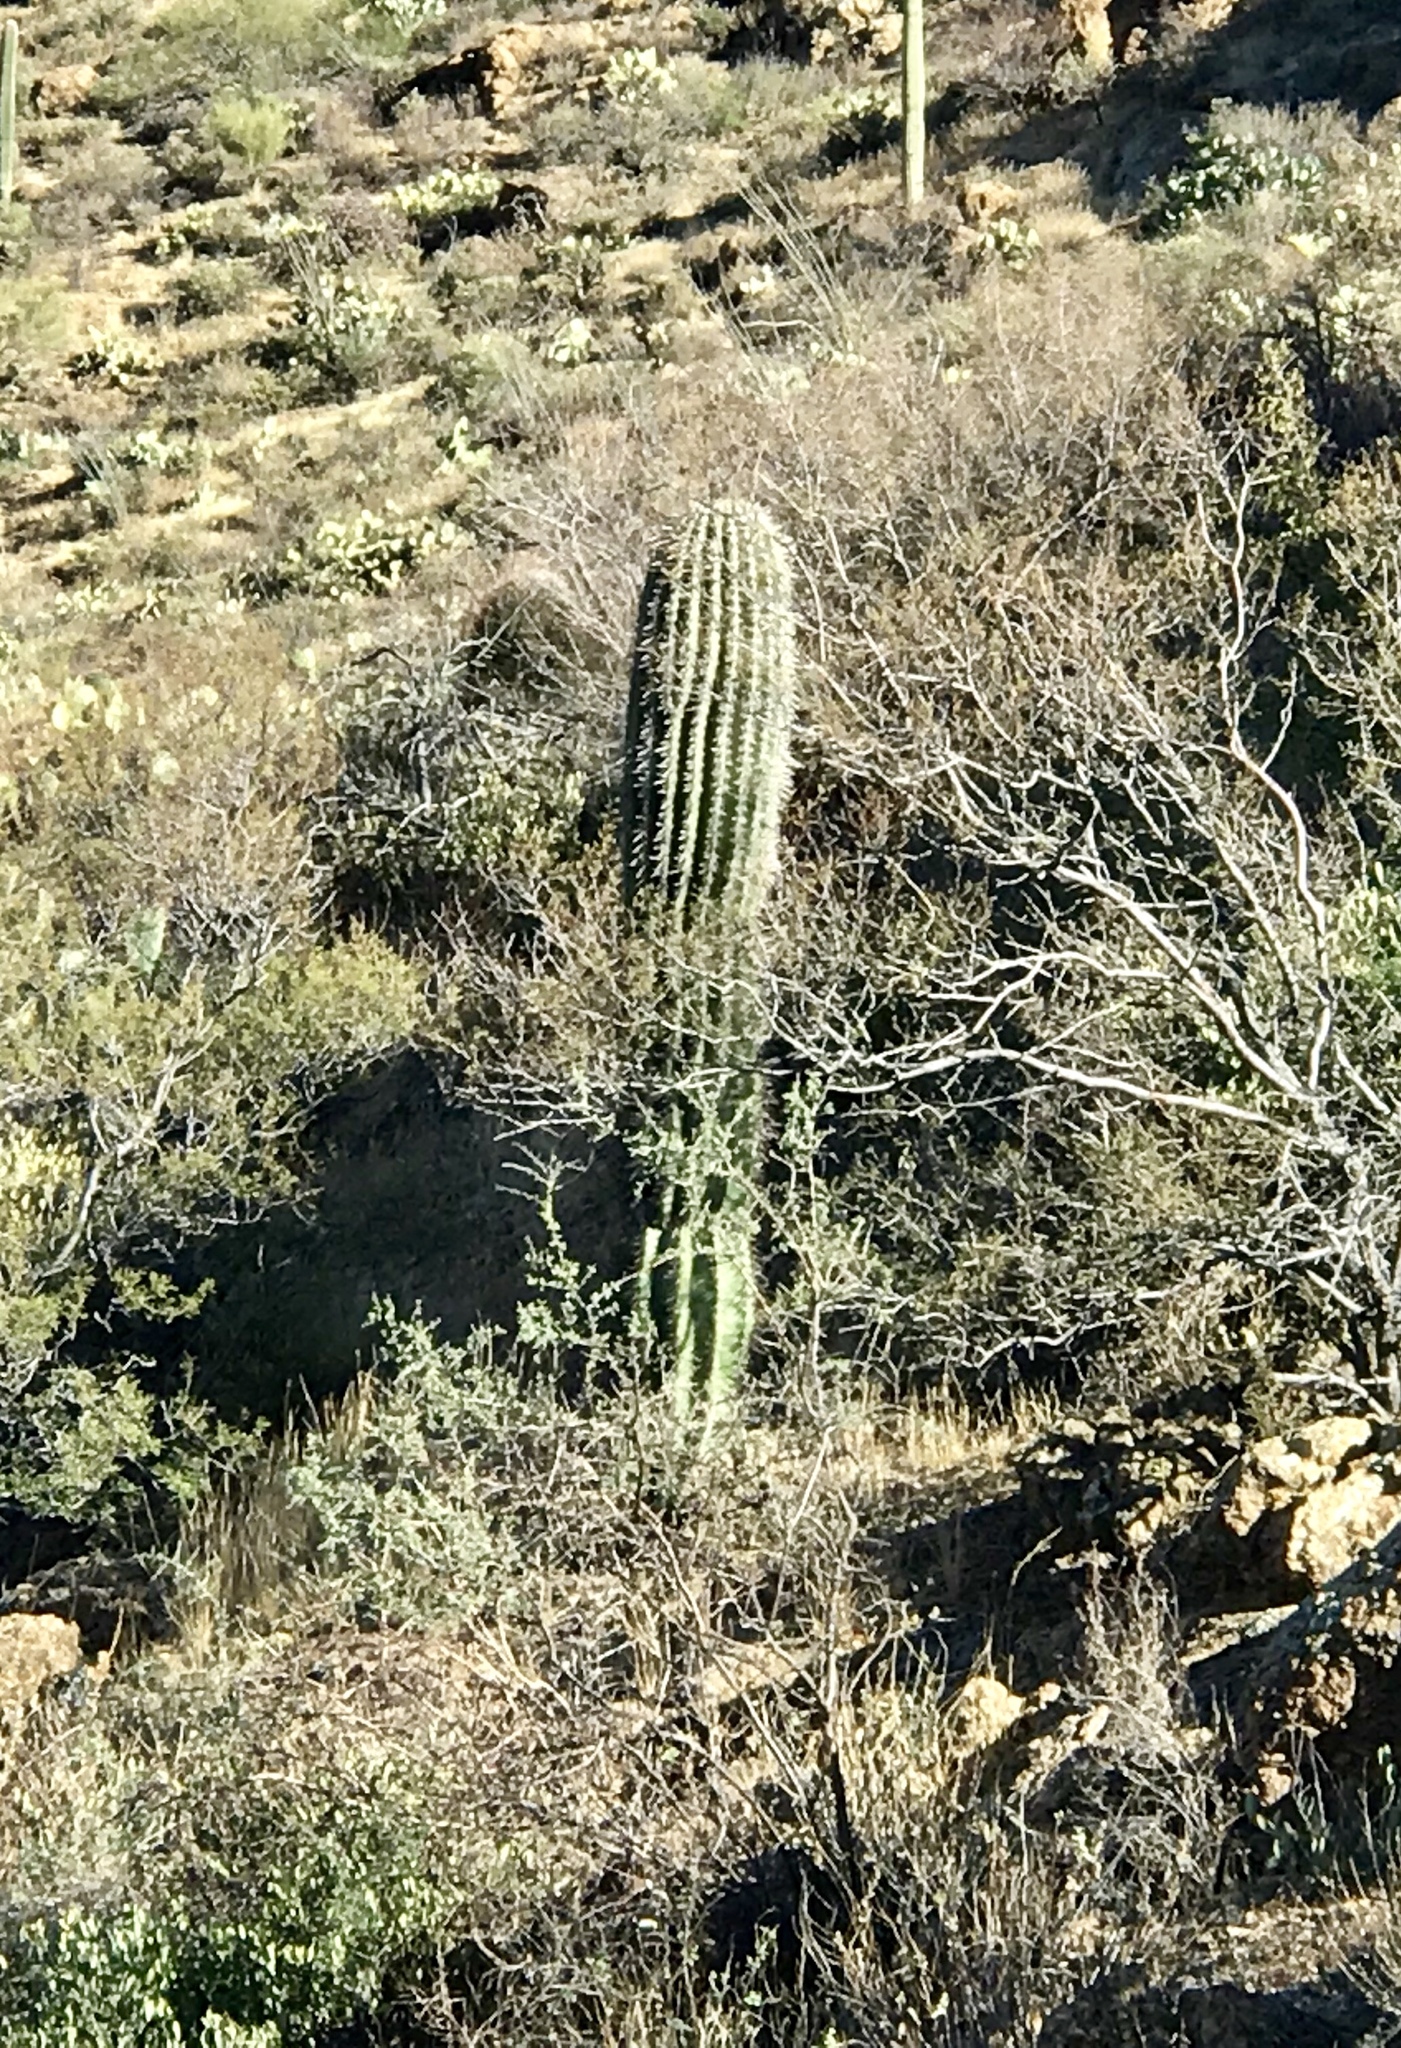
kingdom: Plantae
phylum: Tracheophyta
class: Magnoliopsida
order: Caryophyllales
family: Cactaceae
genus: Carnegiea
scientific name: Carnegiea gigantea
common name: Saguaro
